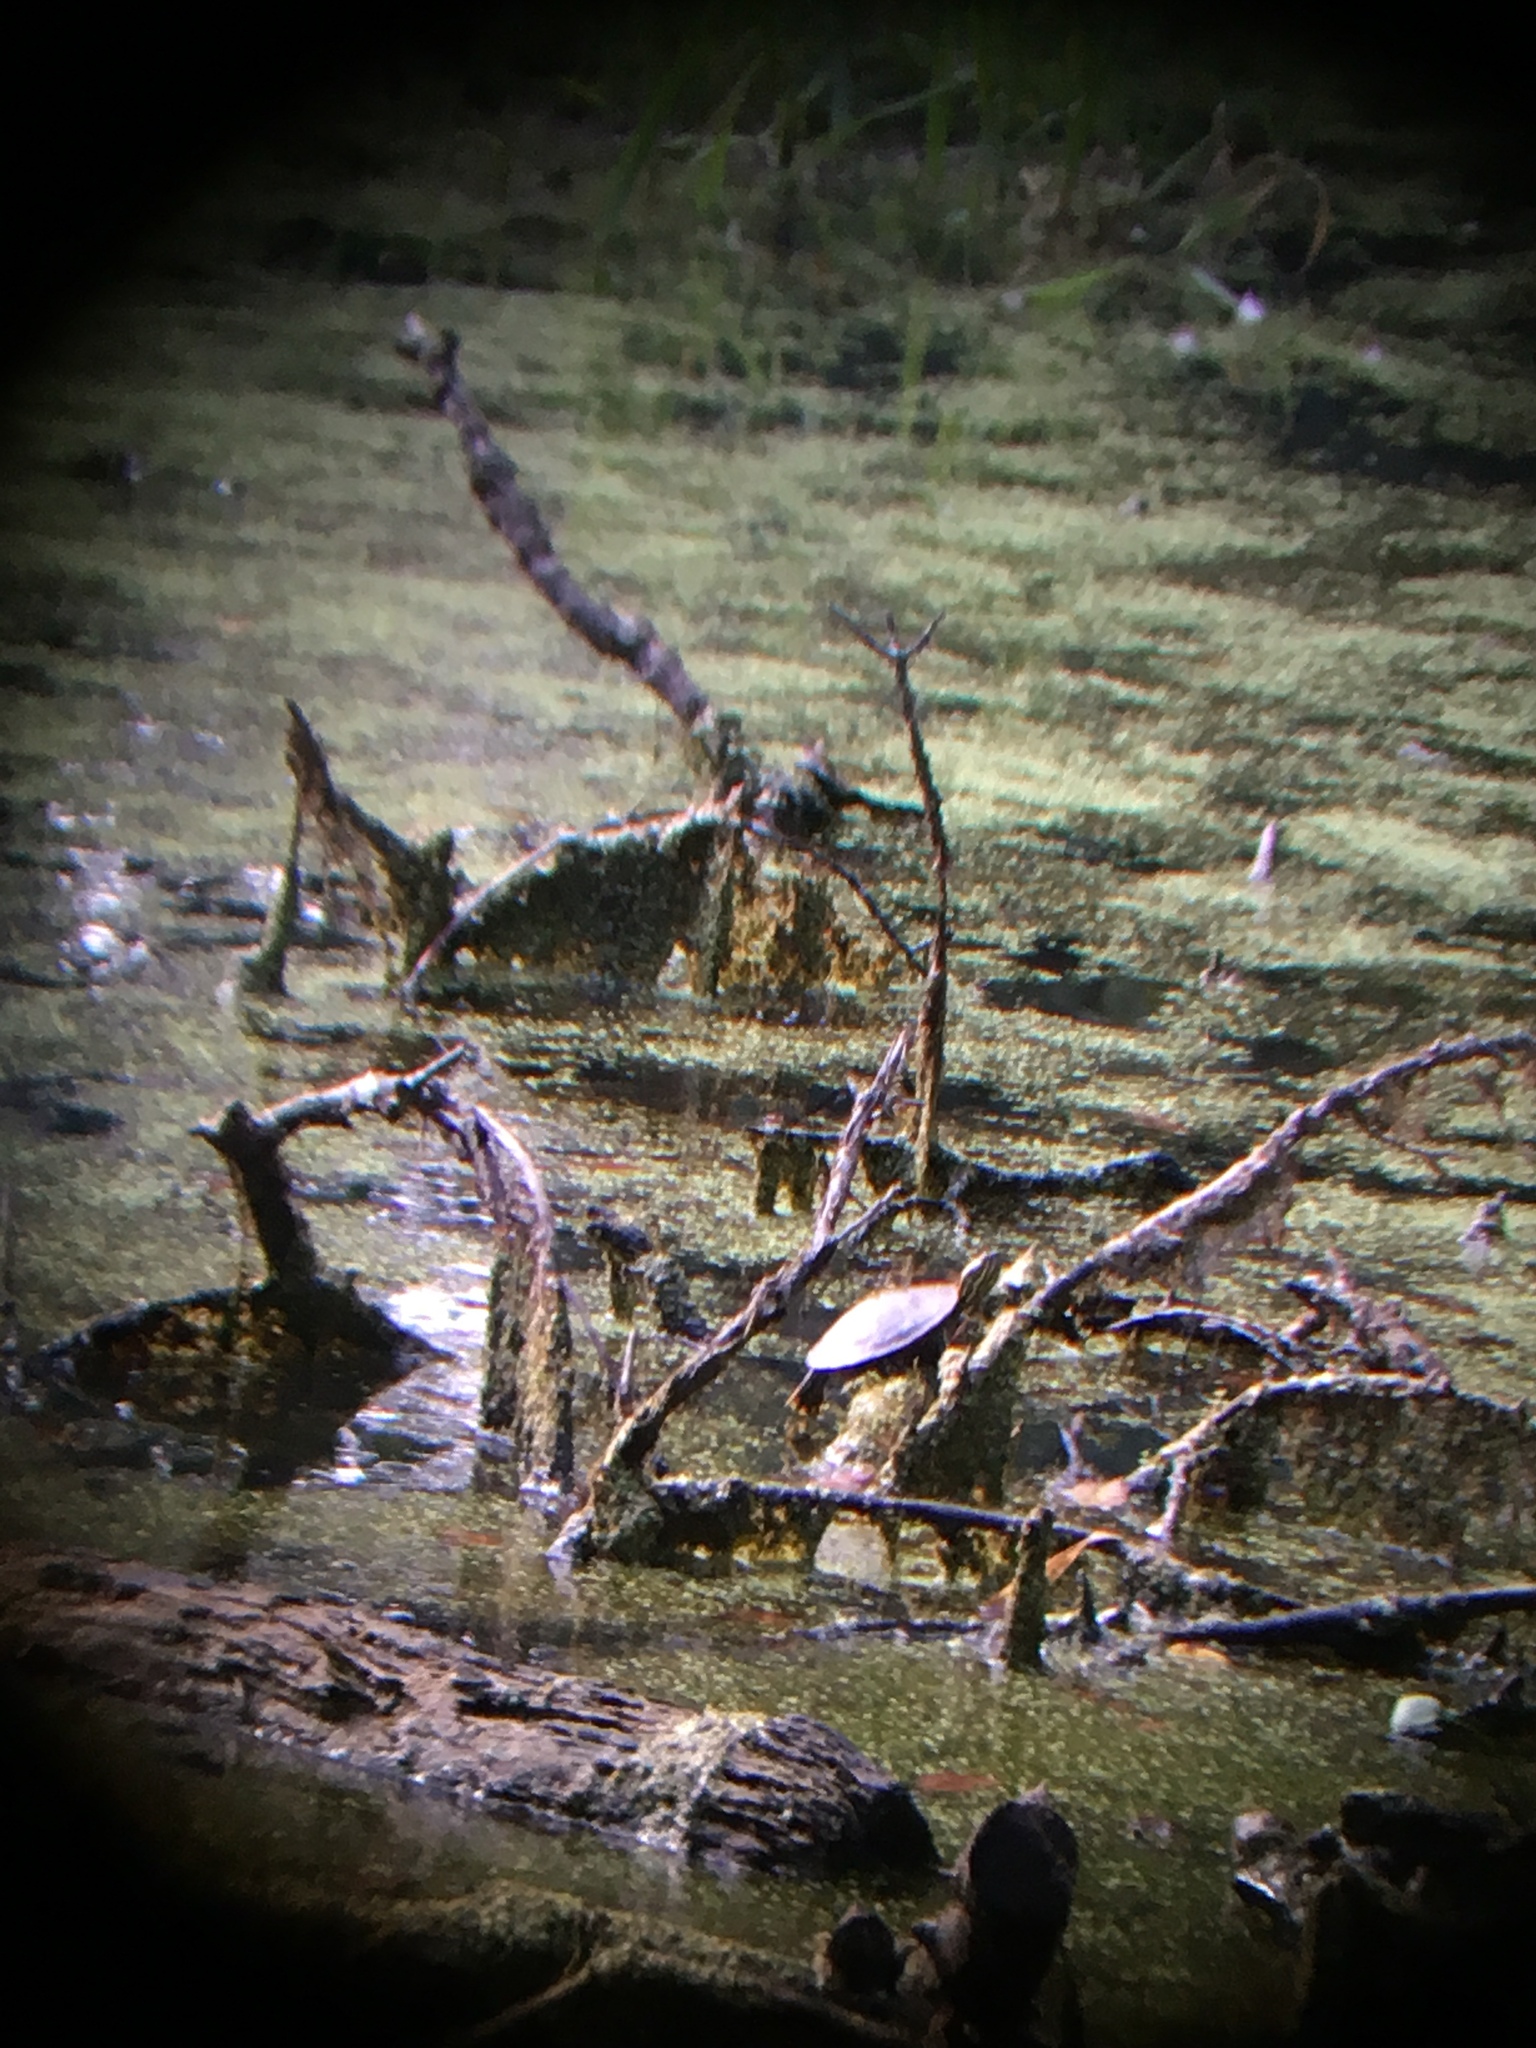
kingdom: Animalia
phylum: Chordata
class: Testudines
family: Emydidae
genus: Chrysemys
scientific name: Chrysemys picta
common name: Painted turtle
